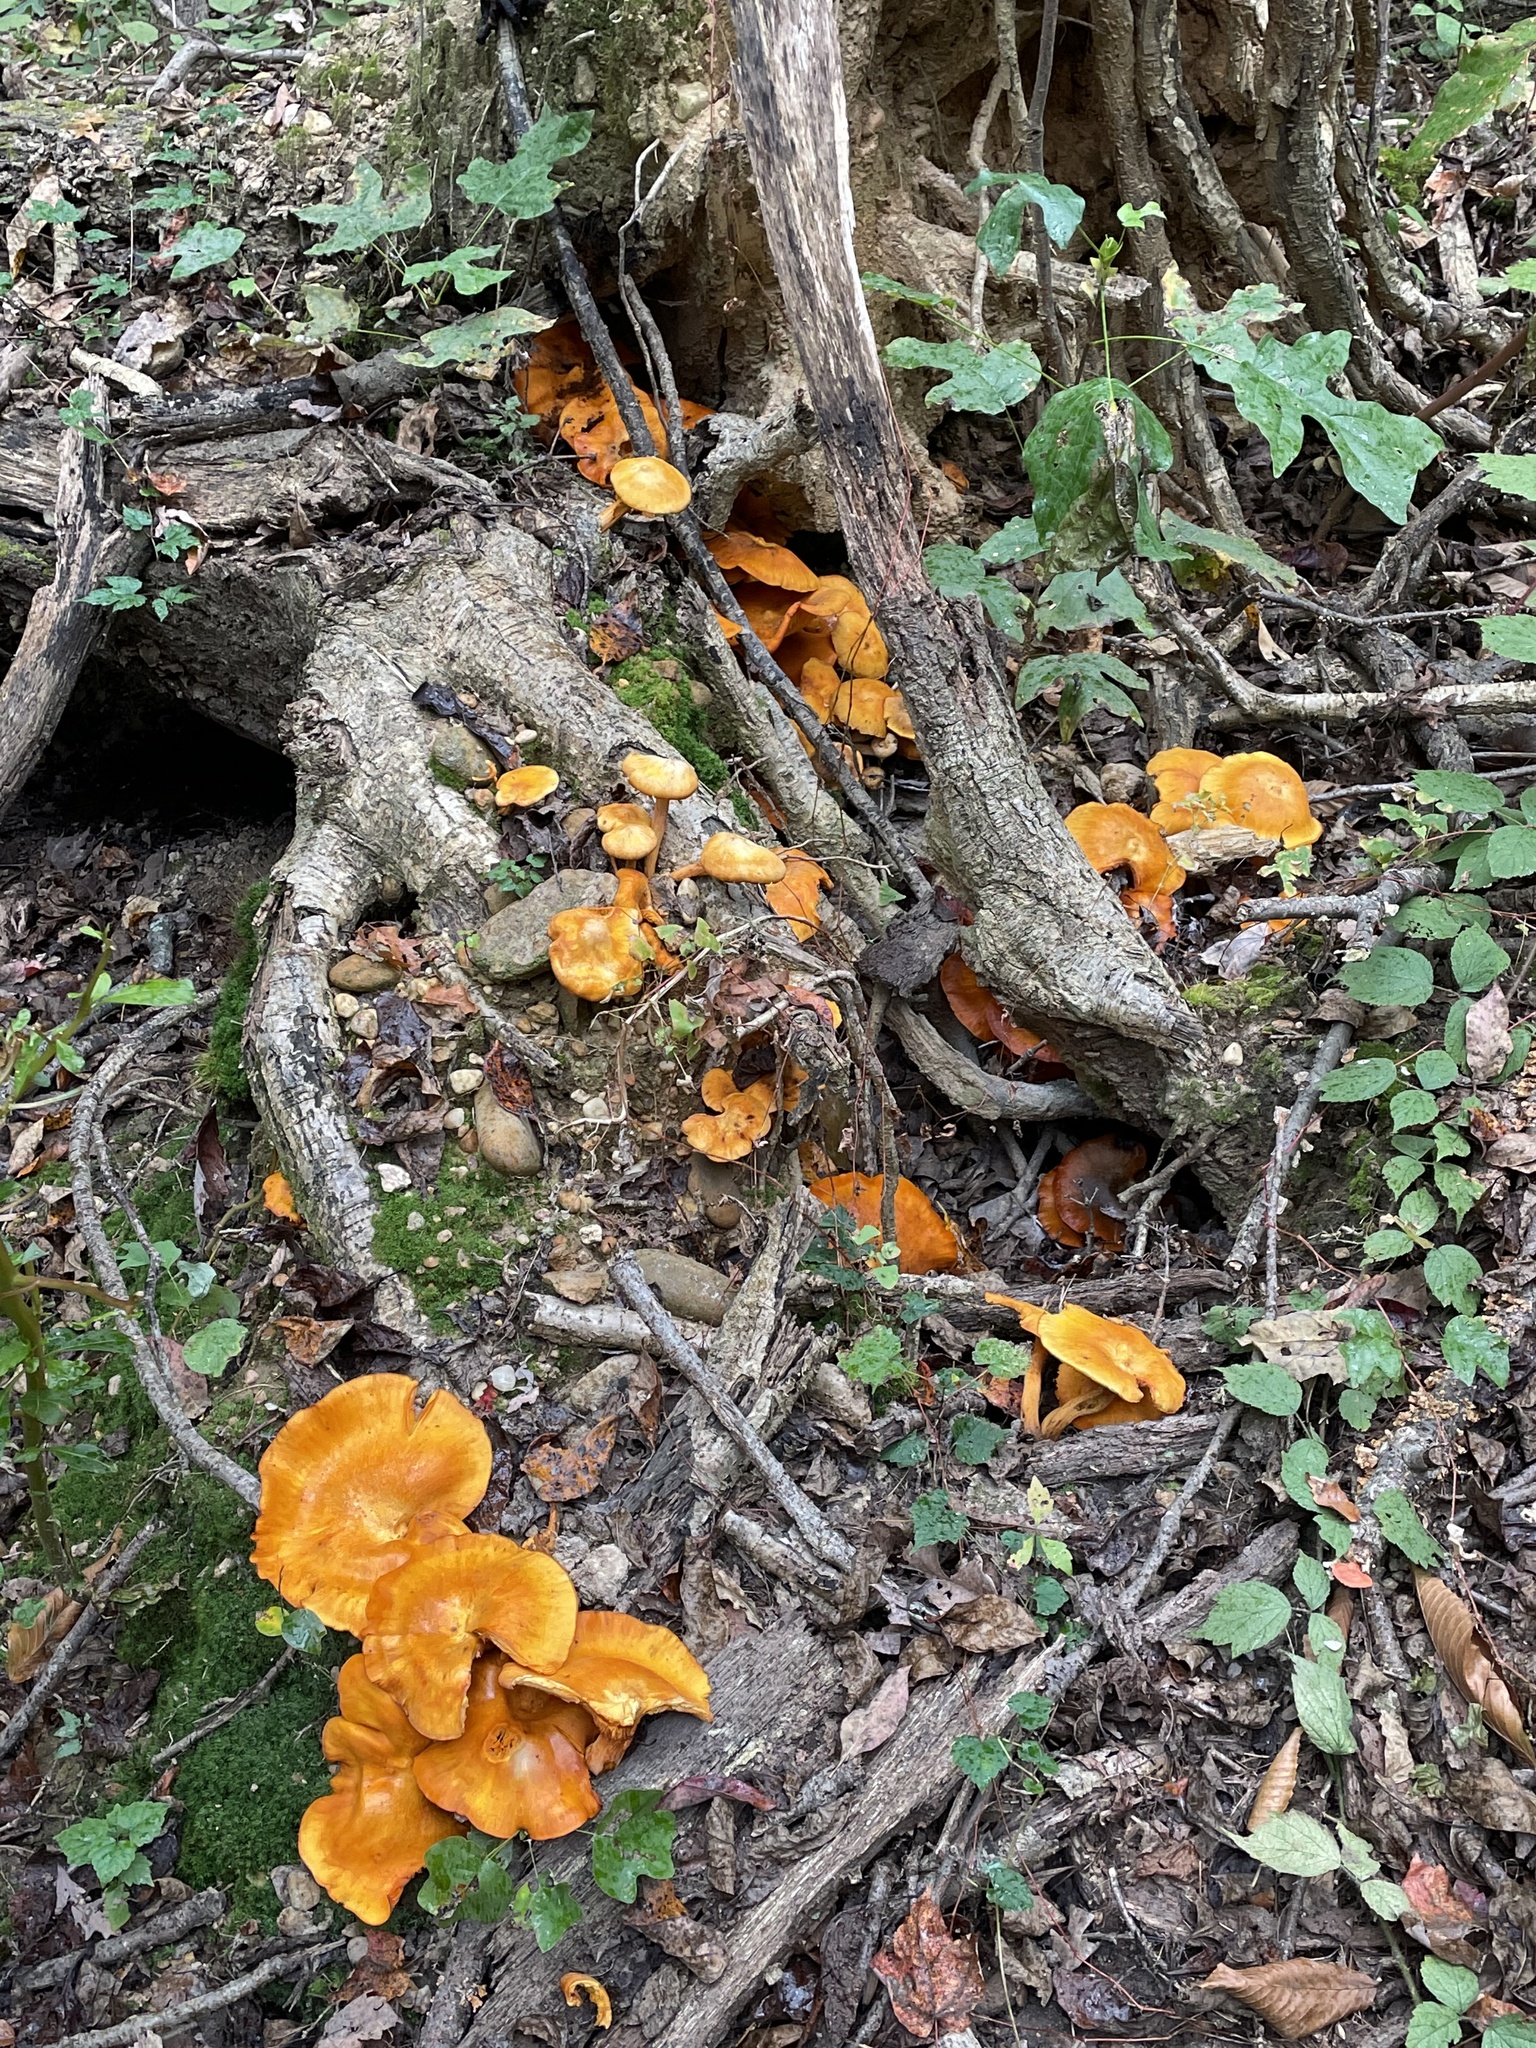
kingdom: Fungi
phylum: Basidiomycota
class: Agaricomycetes
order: Agaricales
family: Omphalotaceae
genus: Omphalotus
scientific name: Omphalotus illudens
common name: Jack o lantern
